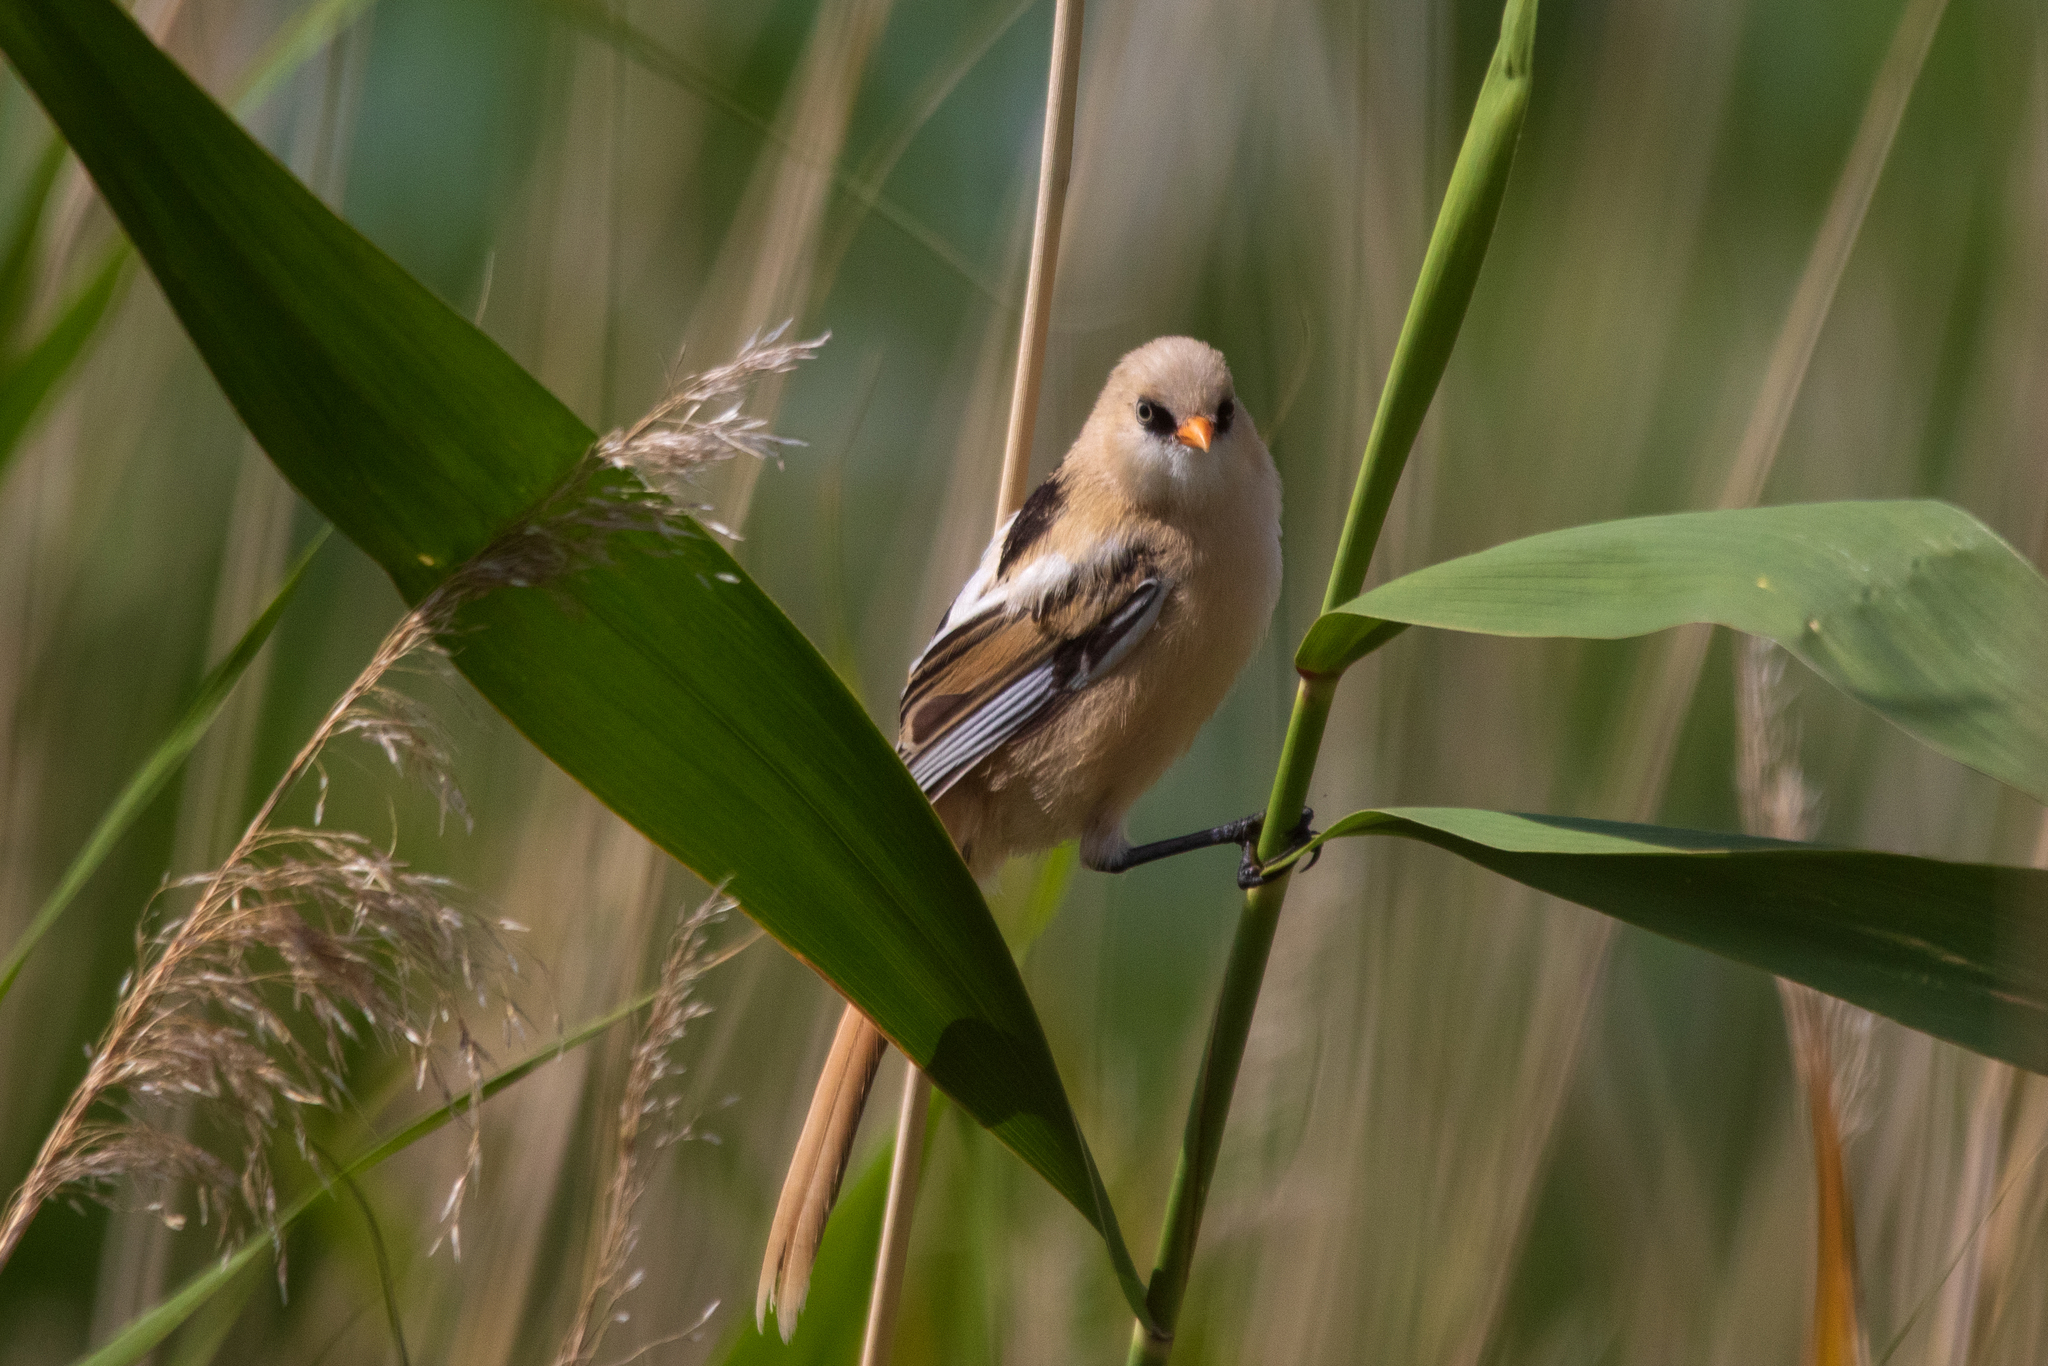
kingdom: Animalia
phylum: Chordata
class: Aves
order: Passeriformes
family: Panuridae
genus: Panurus
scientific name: Panurus biarmicus
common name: Bearded reedling
